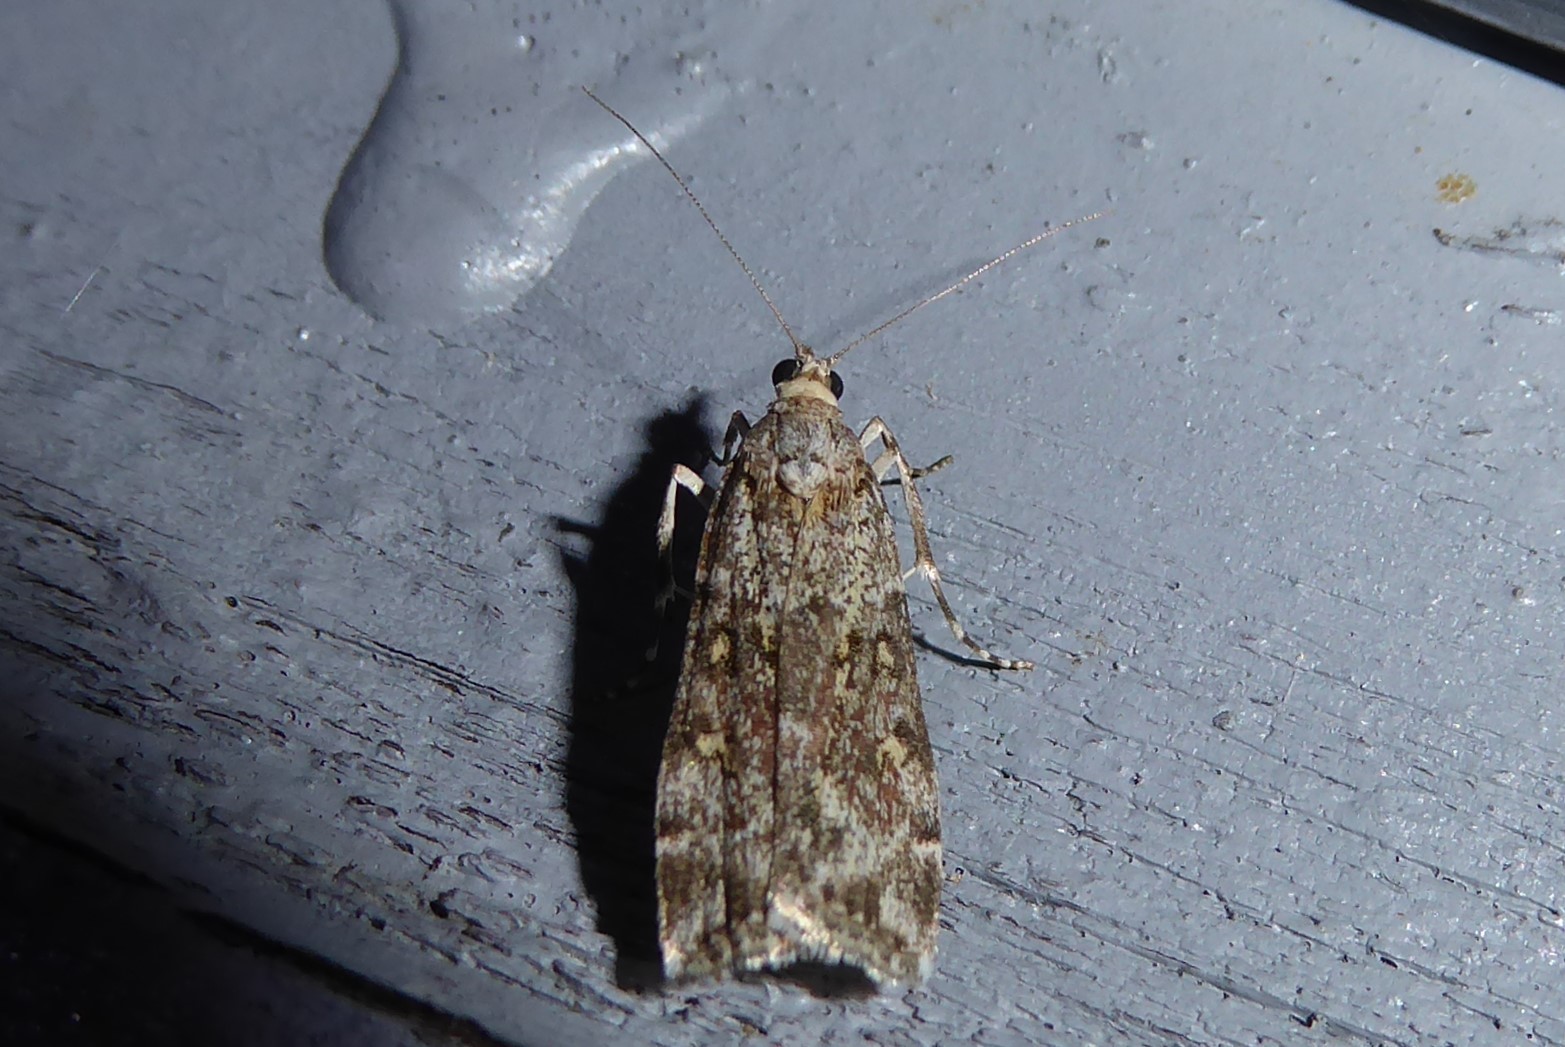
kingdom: Animalia
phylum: Arthropoda
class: Insecta
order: Lepidoptera
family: Crambidae
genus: Eudonia
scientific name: Eudonia diphtheralis
